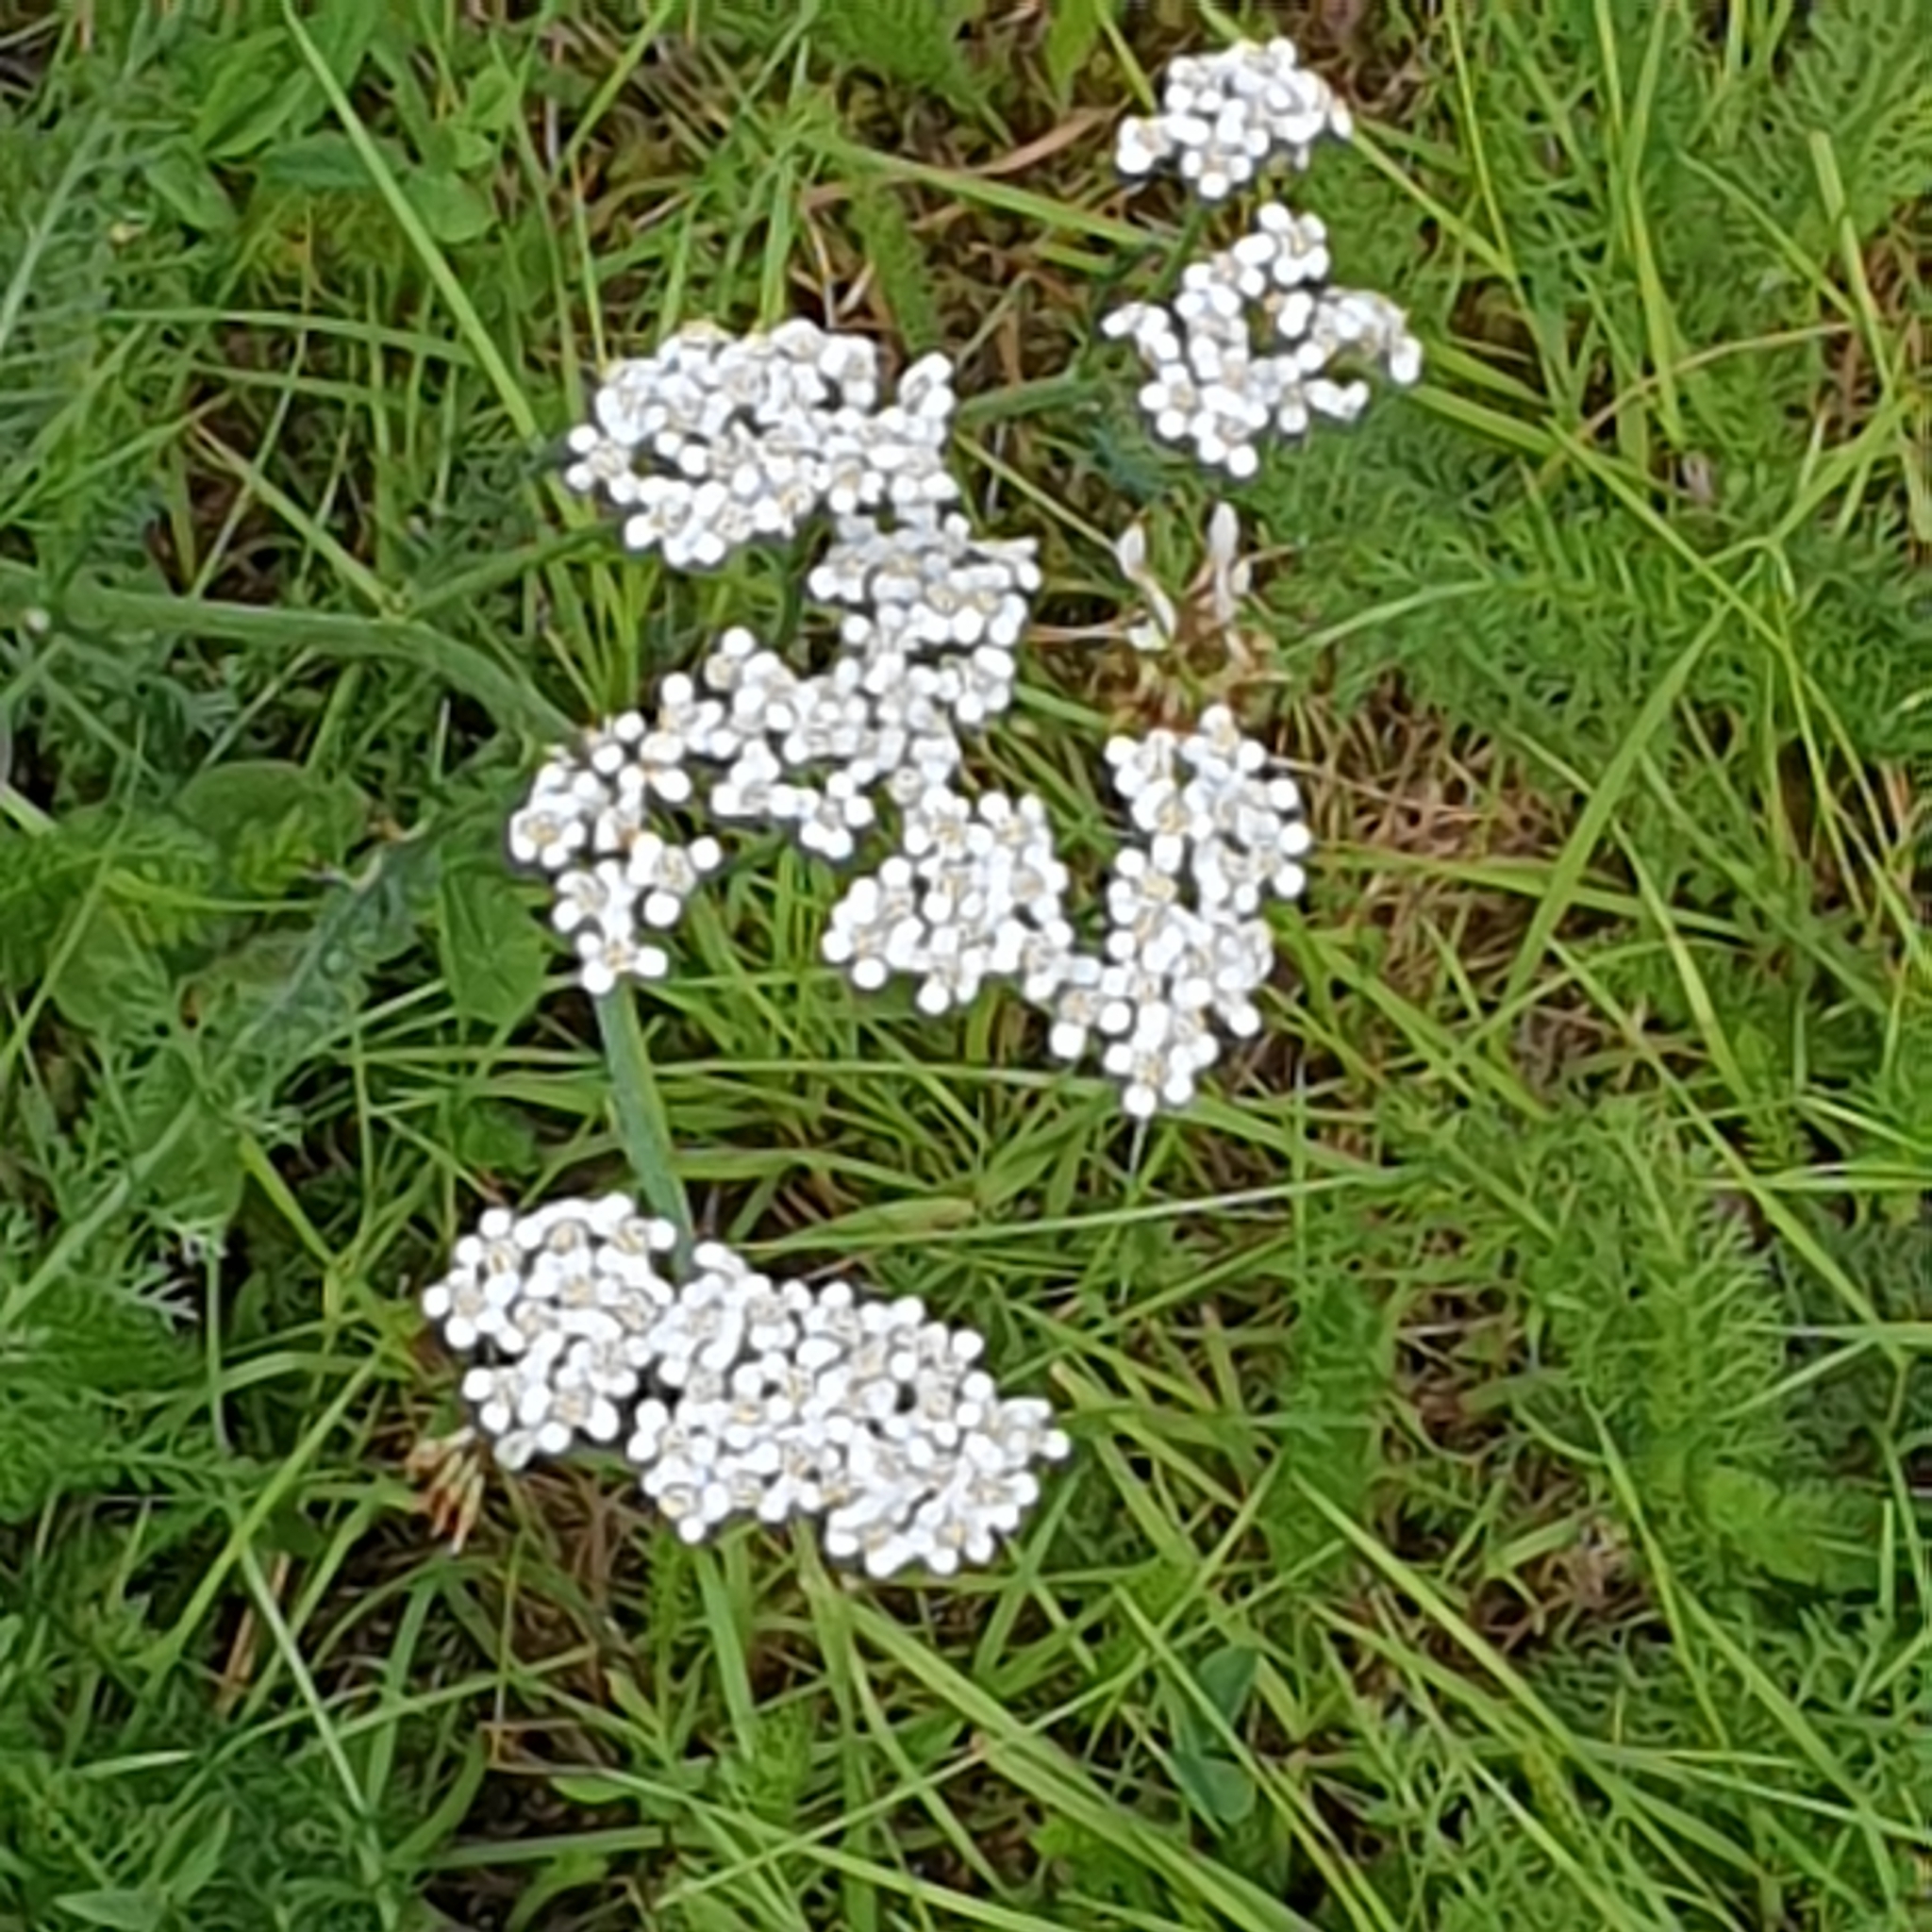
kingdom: Plantae
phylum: Tracheophyta
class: Magnoliopsida
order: Asterales
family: Asteraceae
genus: Achillea
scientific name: Achillea millefolium
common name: Yarrow
